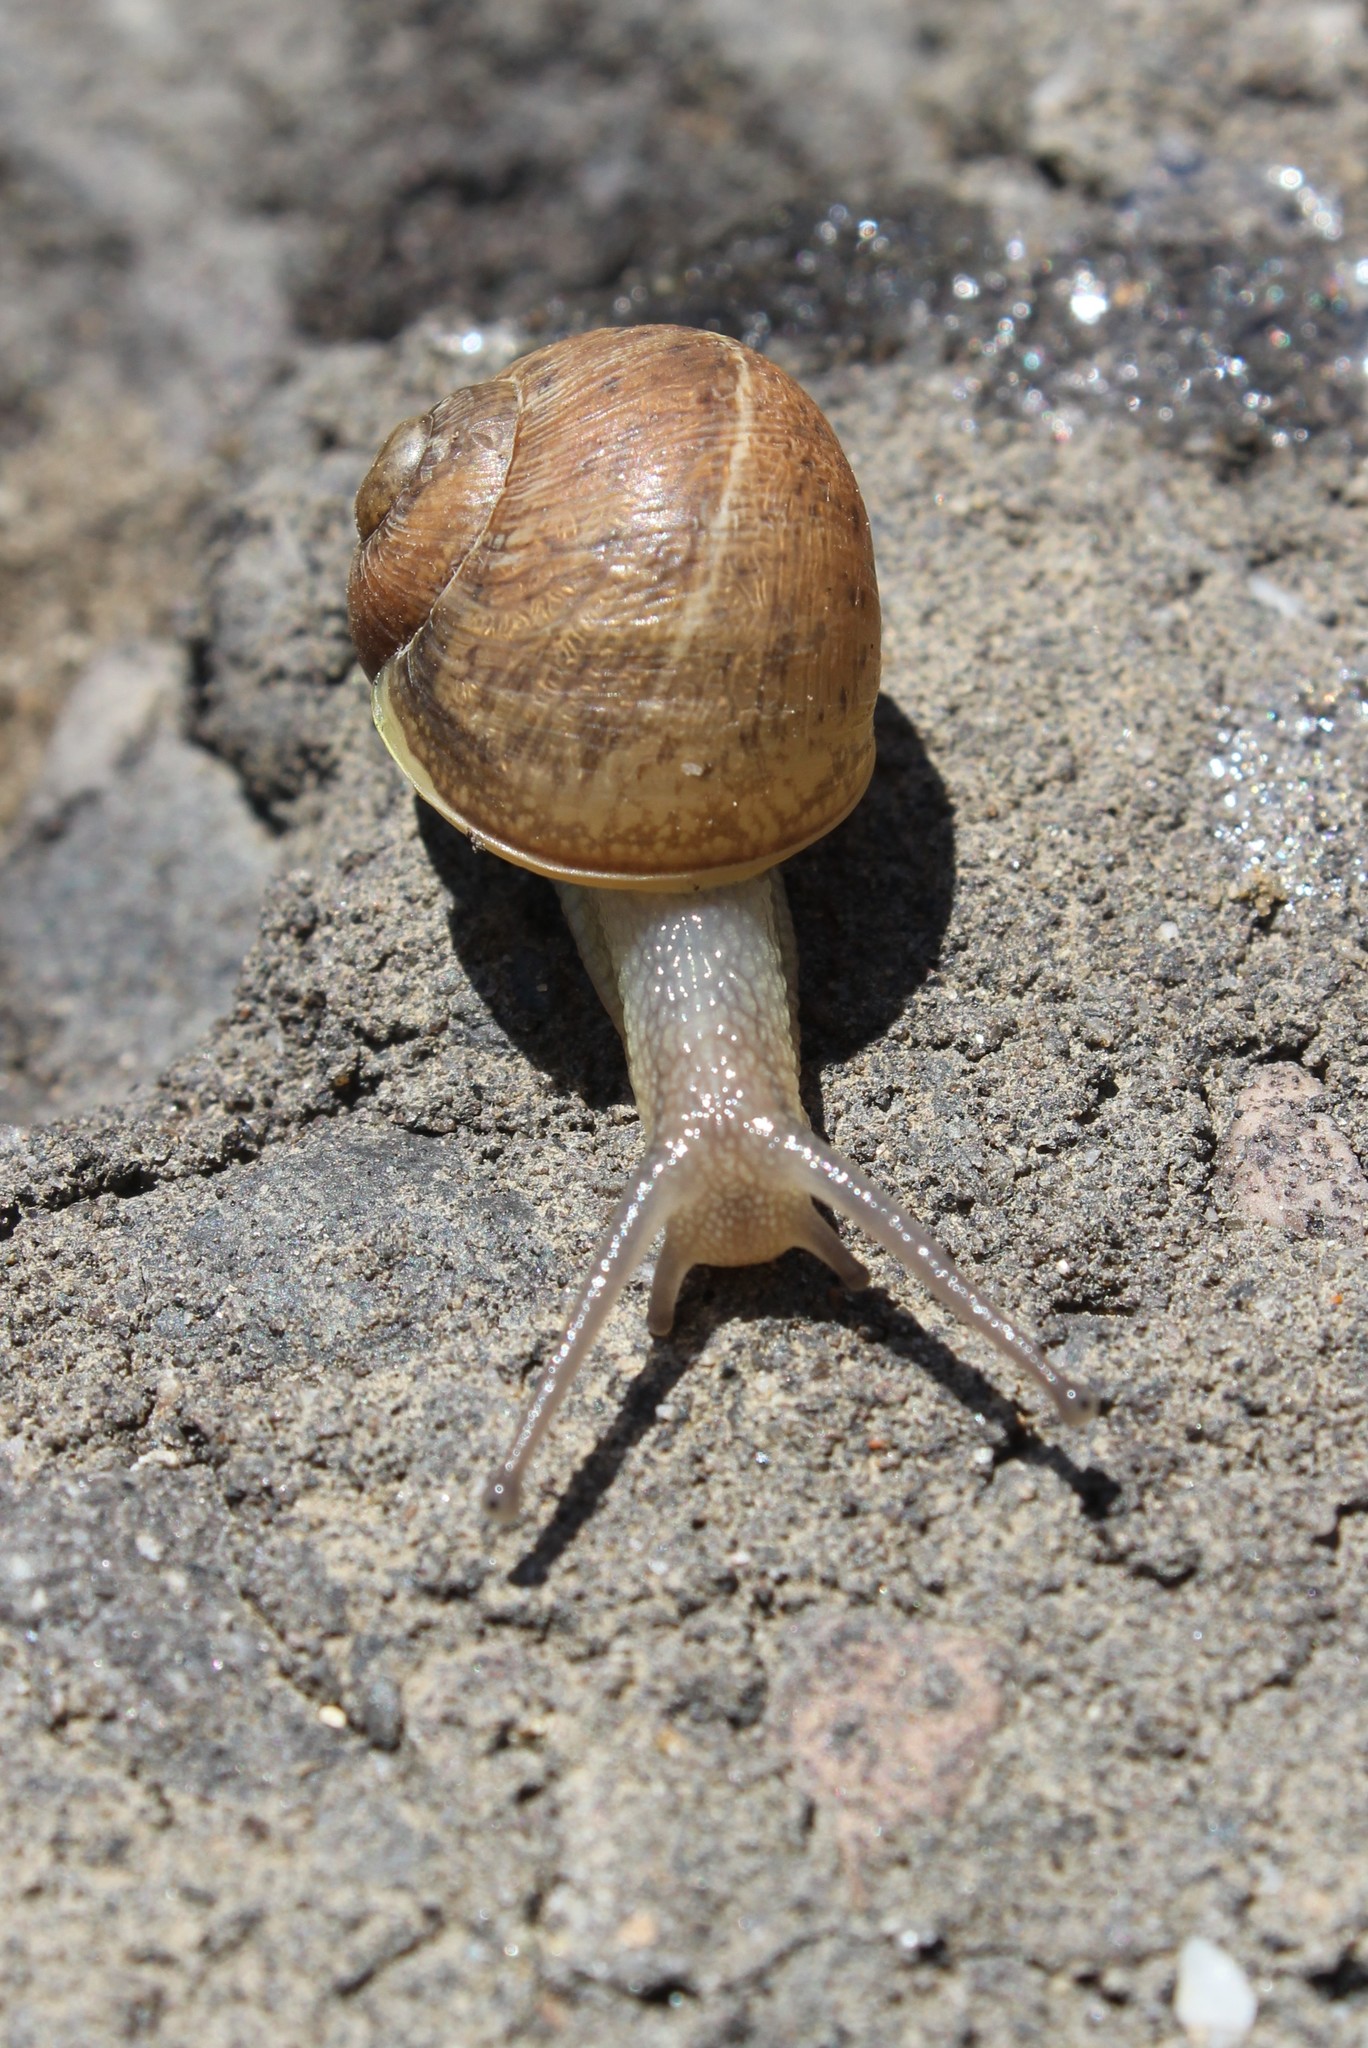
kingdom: Animalia
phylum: Mollusca
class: Gastropoda
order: Stylommatophora
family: Helicidae
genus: Cornu
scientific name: Cornu aspersum
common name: Brown garden snail
